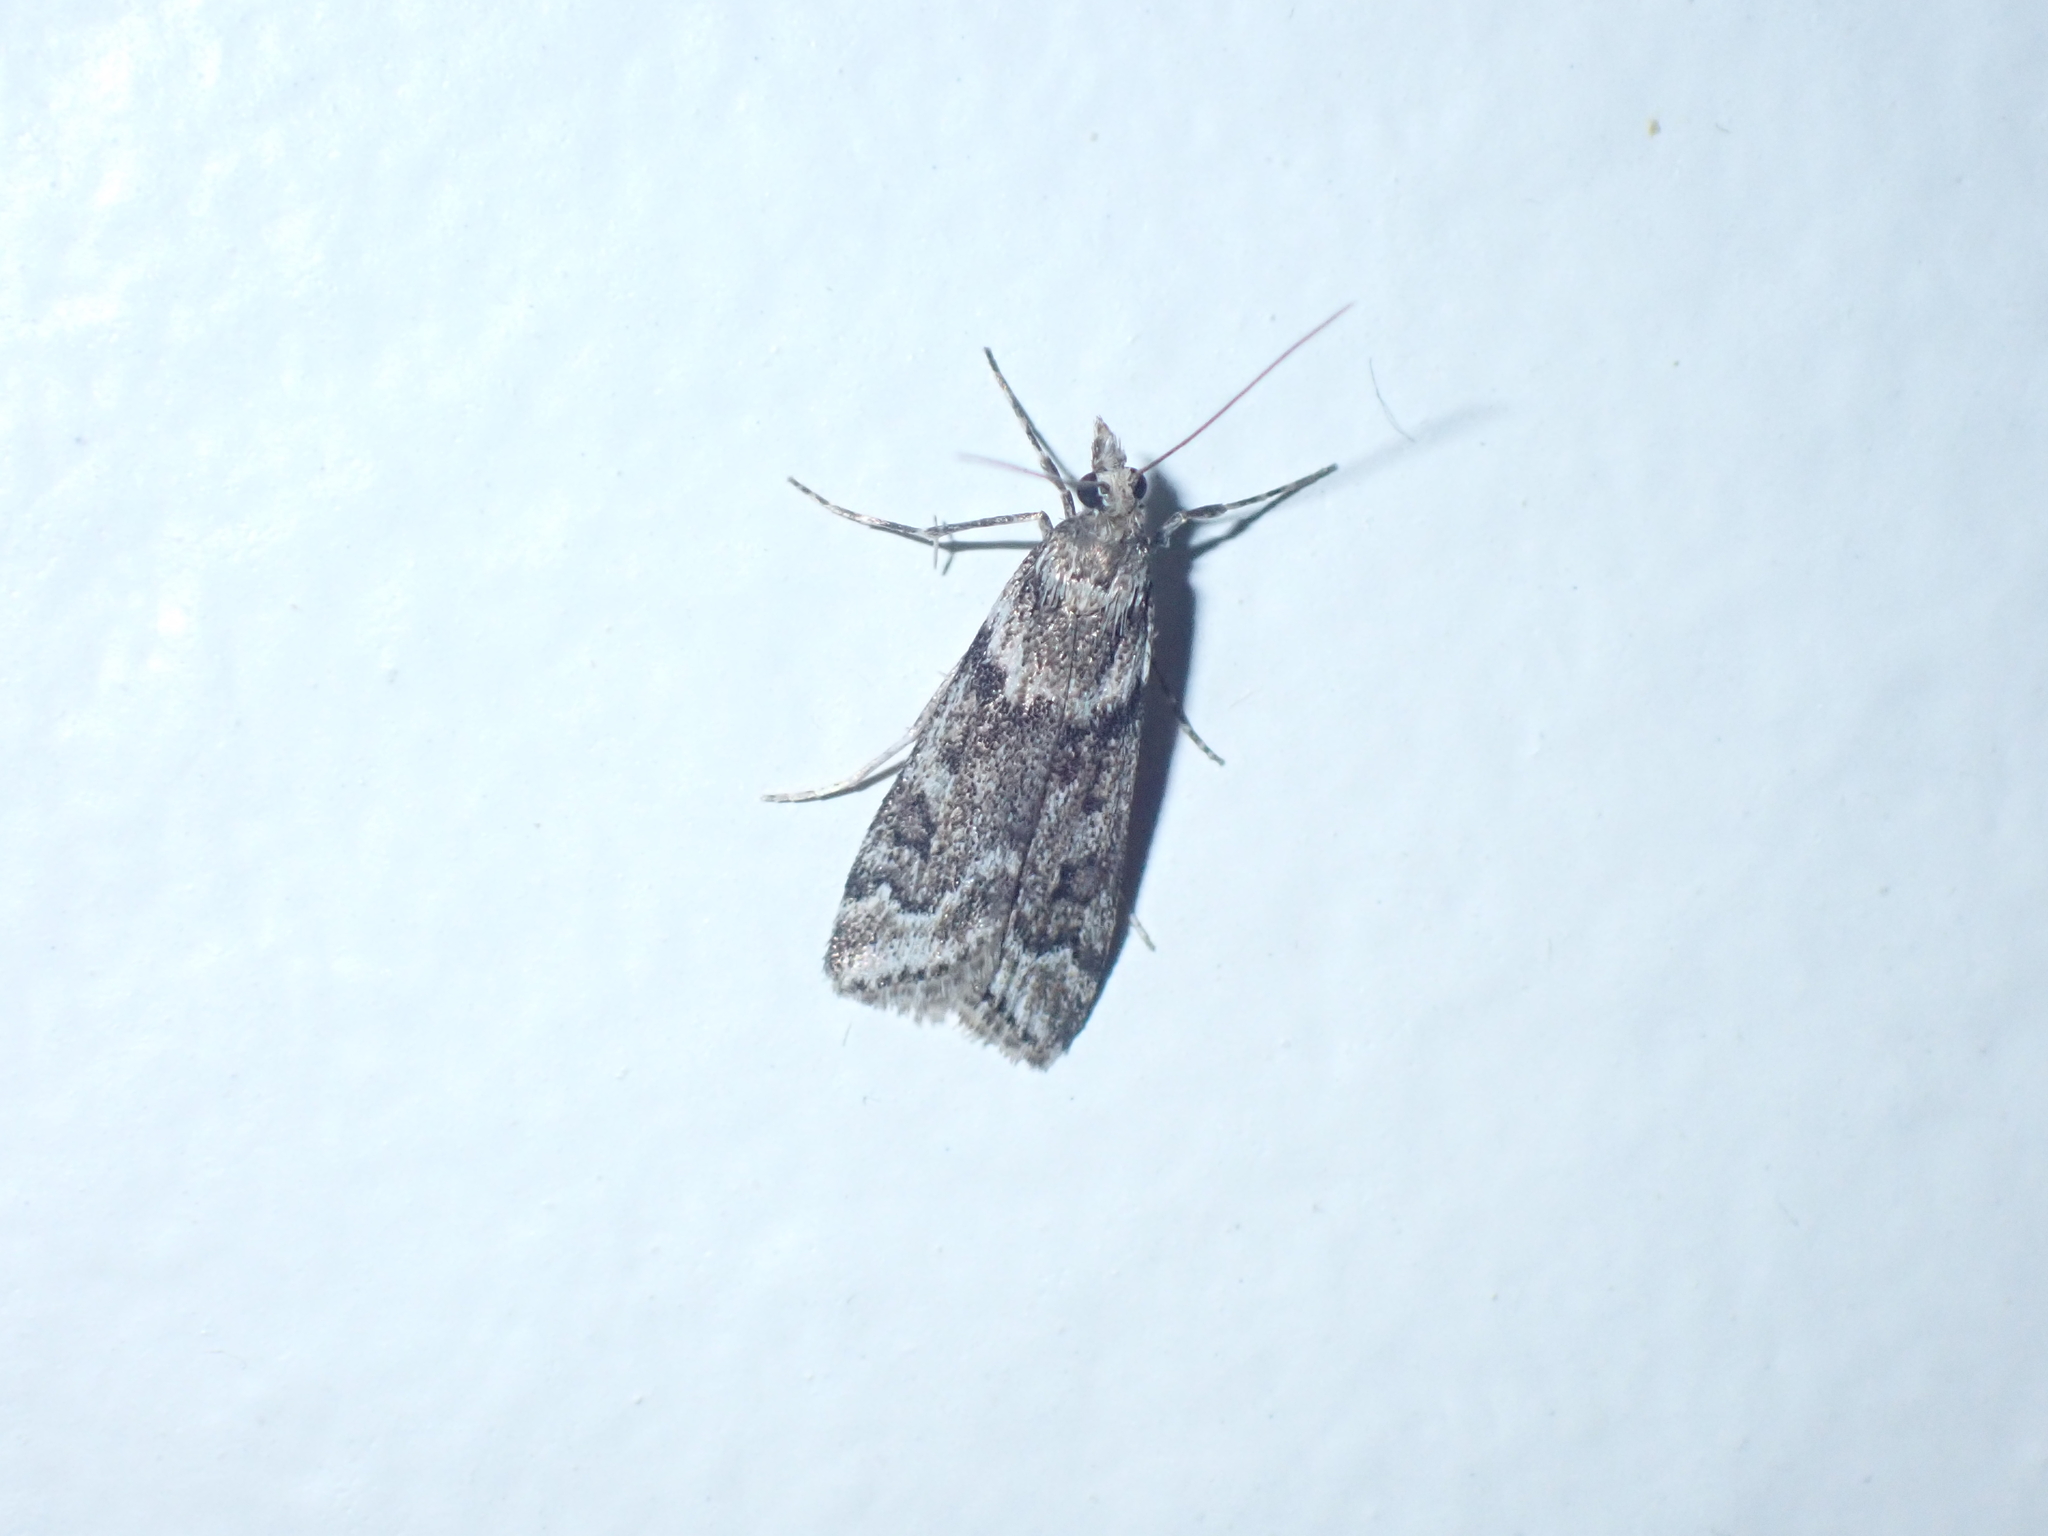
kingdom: Animalia
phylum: Arthropoda
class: Insecta
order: Lepidoptera
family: Crambidae
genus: Eudonia
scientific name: Eudonia angustea
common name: Narrow-winged grey
